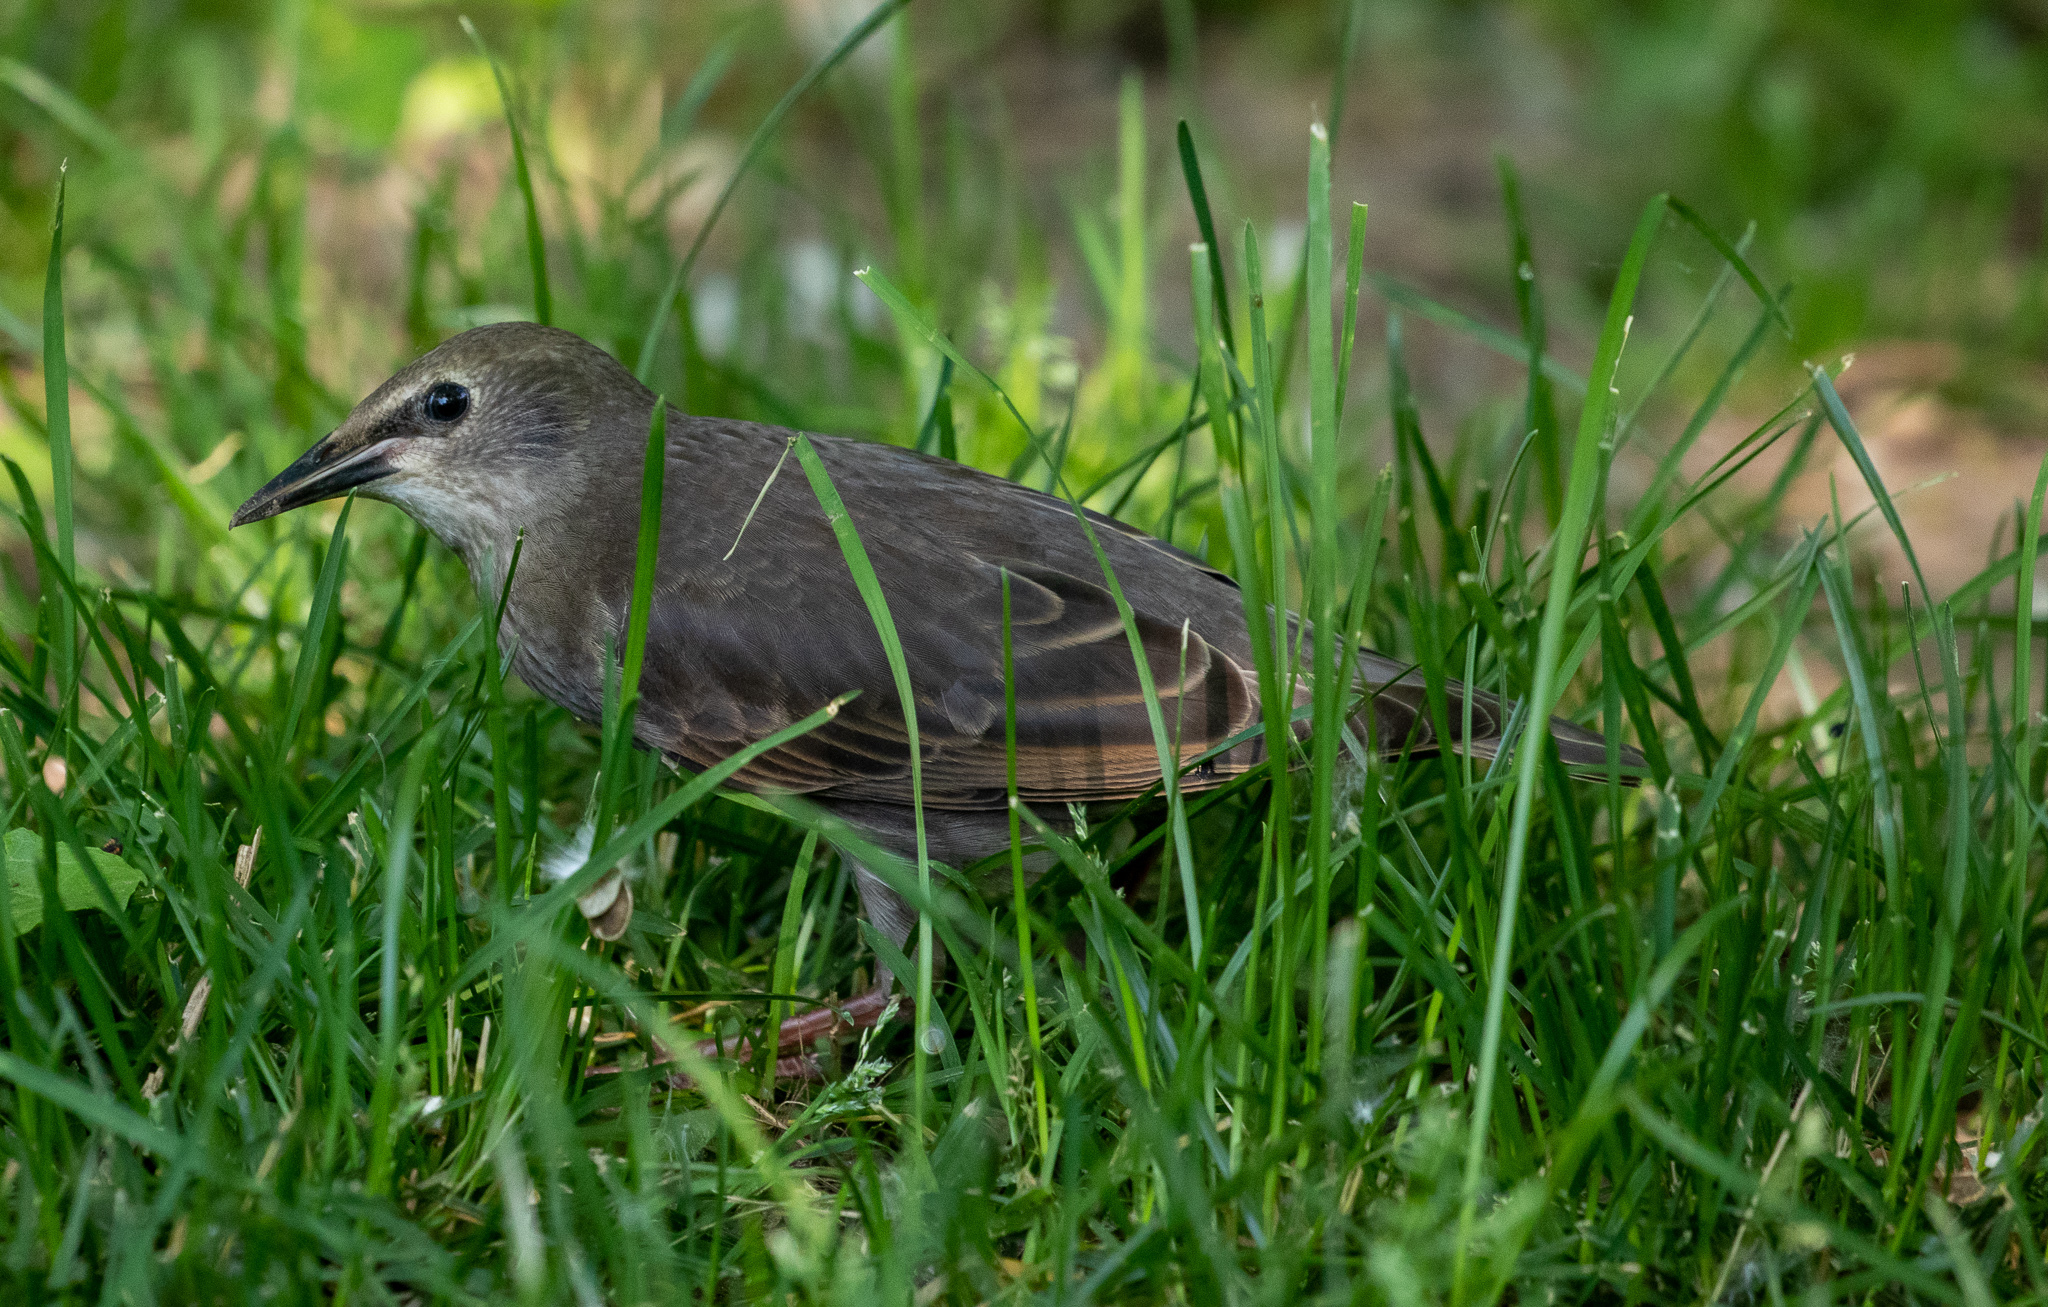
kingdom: Animalia
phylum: Chordata
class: Aves
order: Passeriformes
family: Sturnidae
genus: Sturnus
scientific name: Sturnus vulgaris
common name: Common starling
